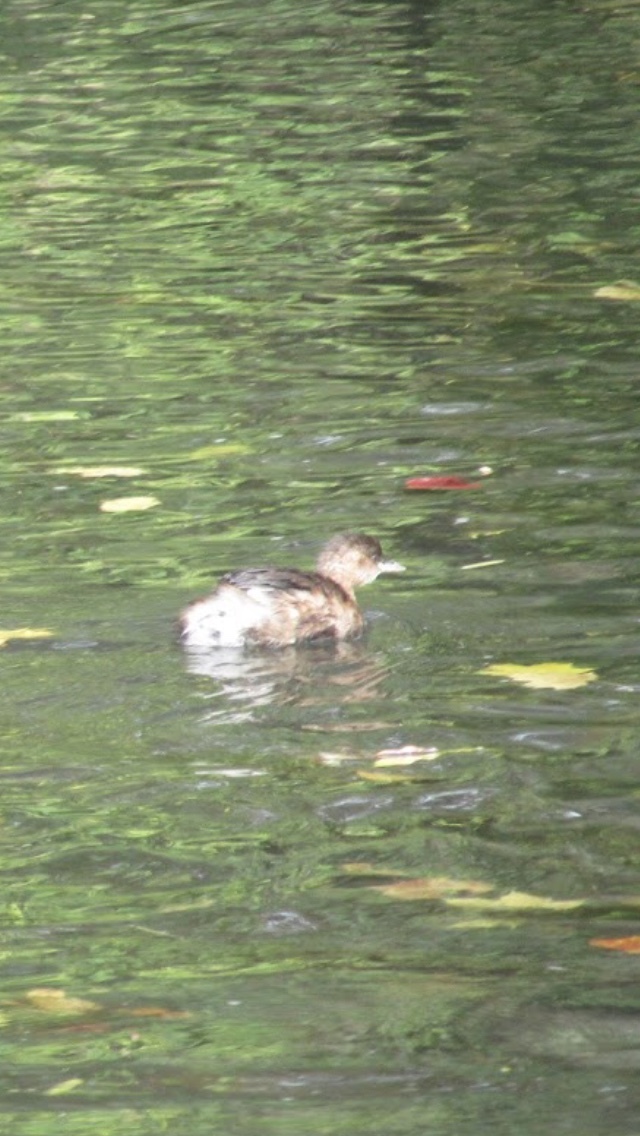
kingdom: Animalia
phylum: Chordata
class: Aves
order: Podicipediformes
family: Podicipedidae
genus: Tachybaptus
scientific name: Tachybaptus ruficollis
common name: Little grebe
